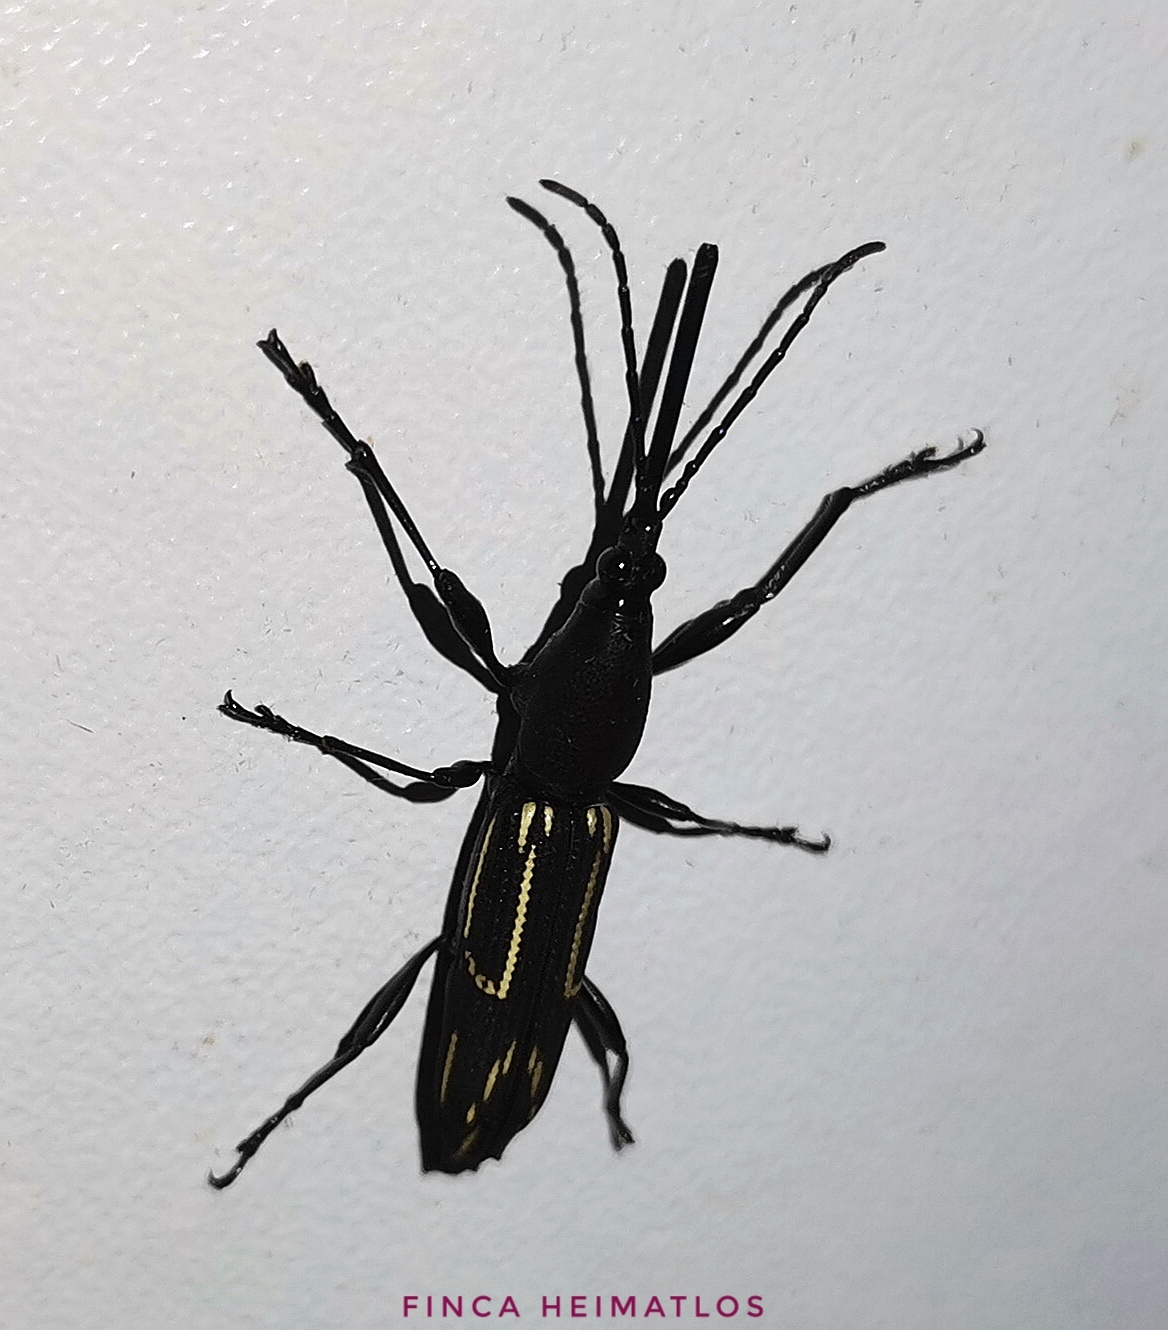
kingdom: Animalia
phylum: Arthropoda
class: Insecta
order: Coleoptera
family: Brentidae
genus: Nemorhinus
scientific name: Nemorhinus myrmecophaga
